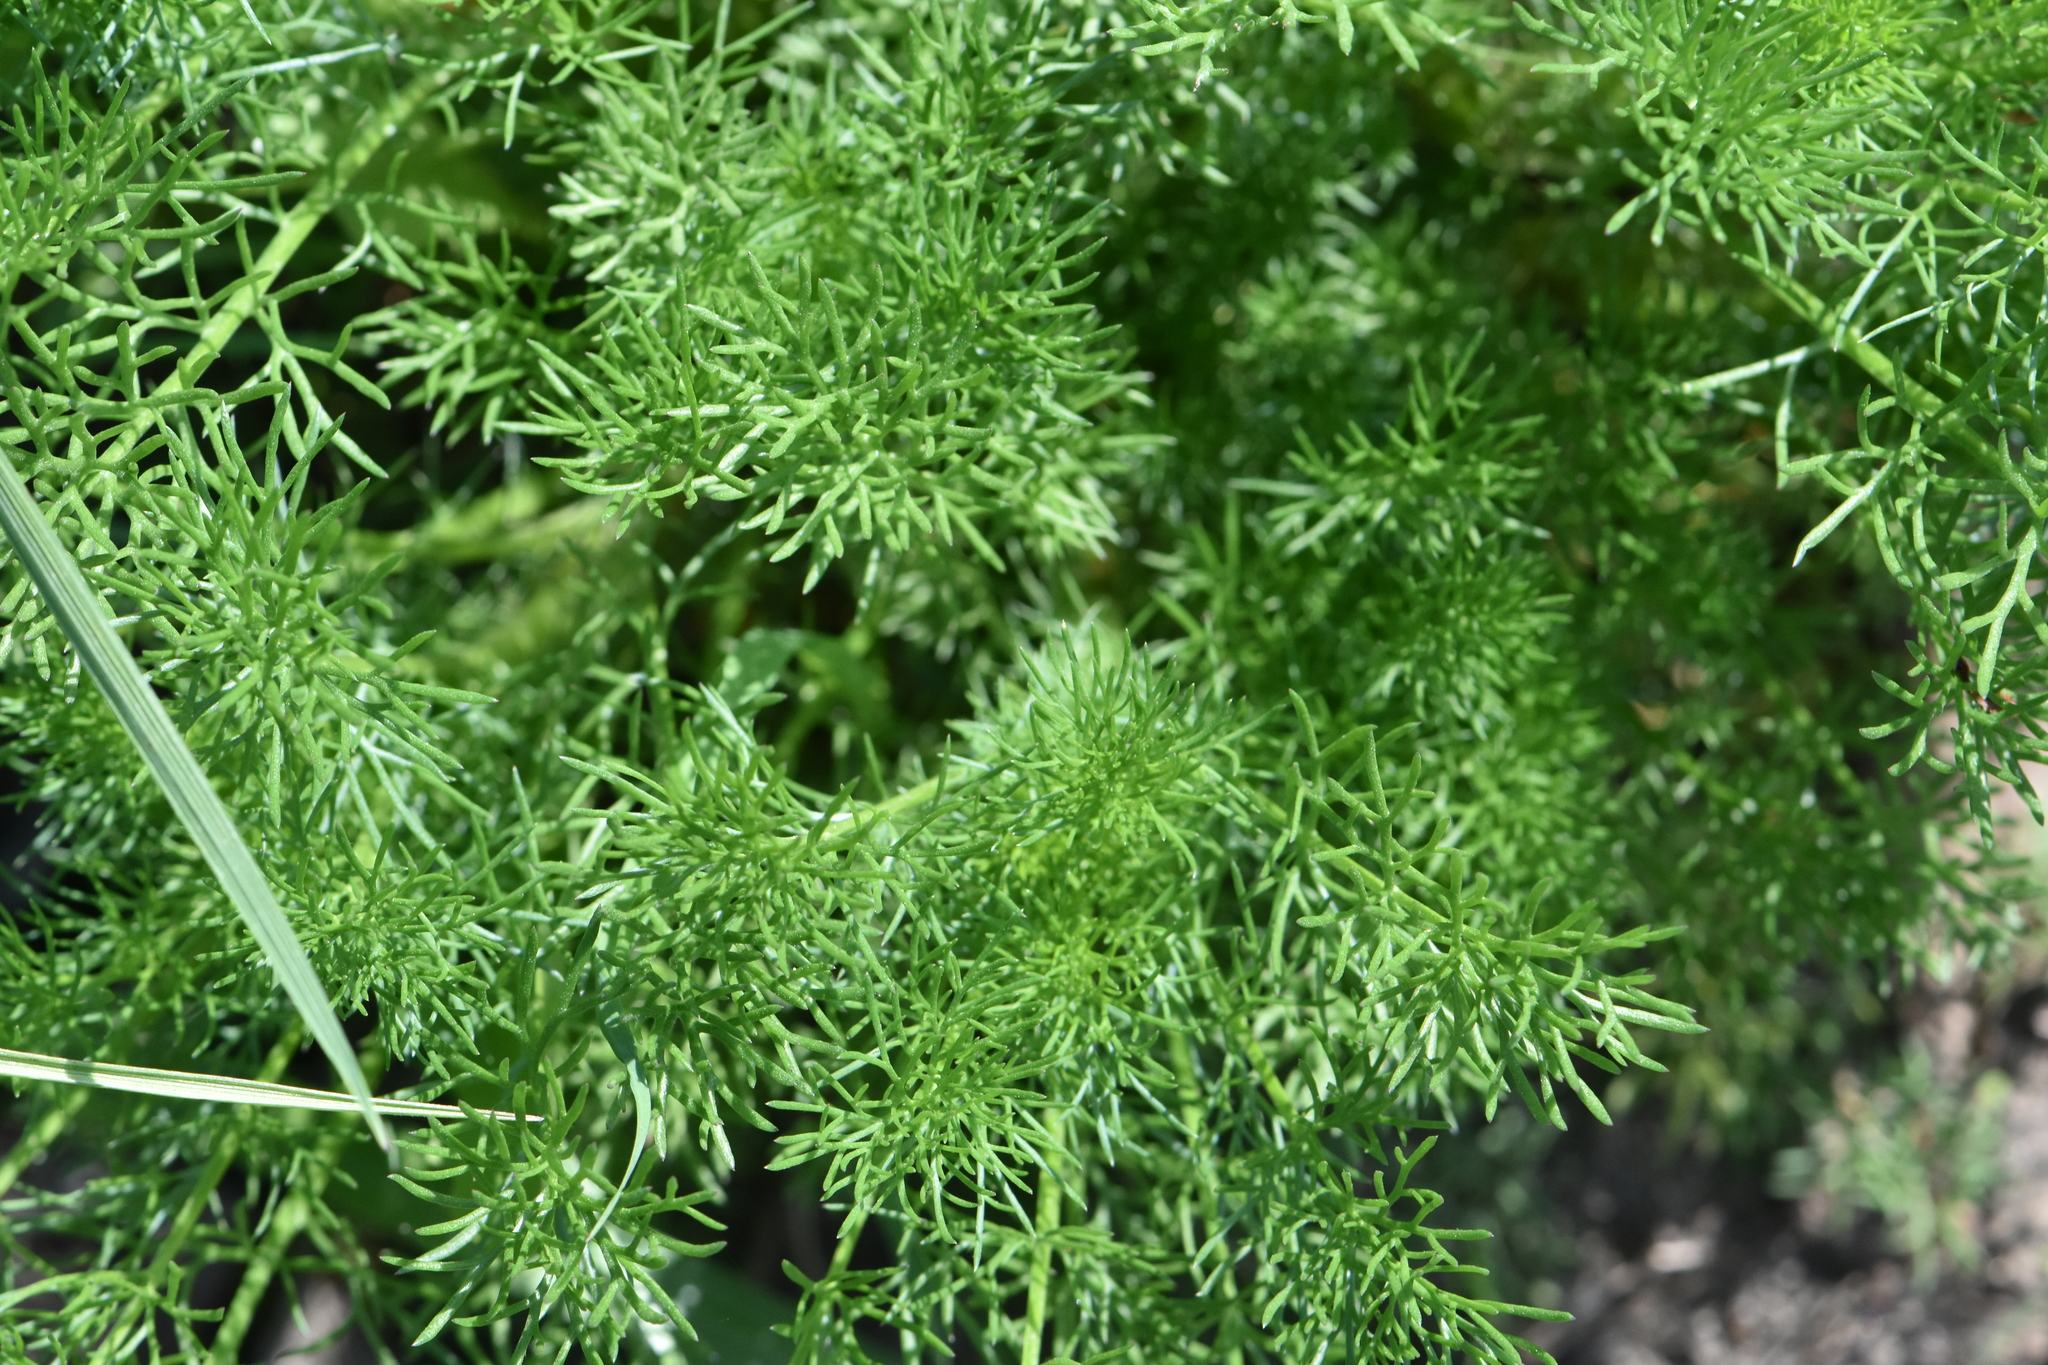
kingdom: Plantae
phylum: Tracheophyta
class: Magnoliopsida
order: Asterales
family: Asteraceae
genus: Tripleurospermum
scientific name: Tripleurospermum inodorum
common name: Scentless mayweed
